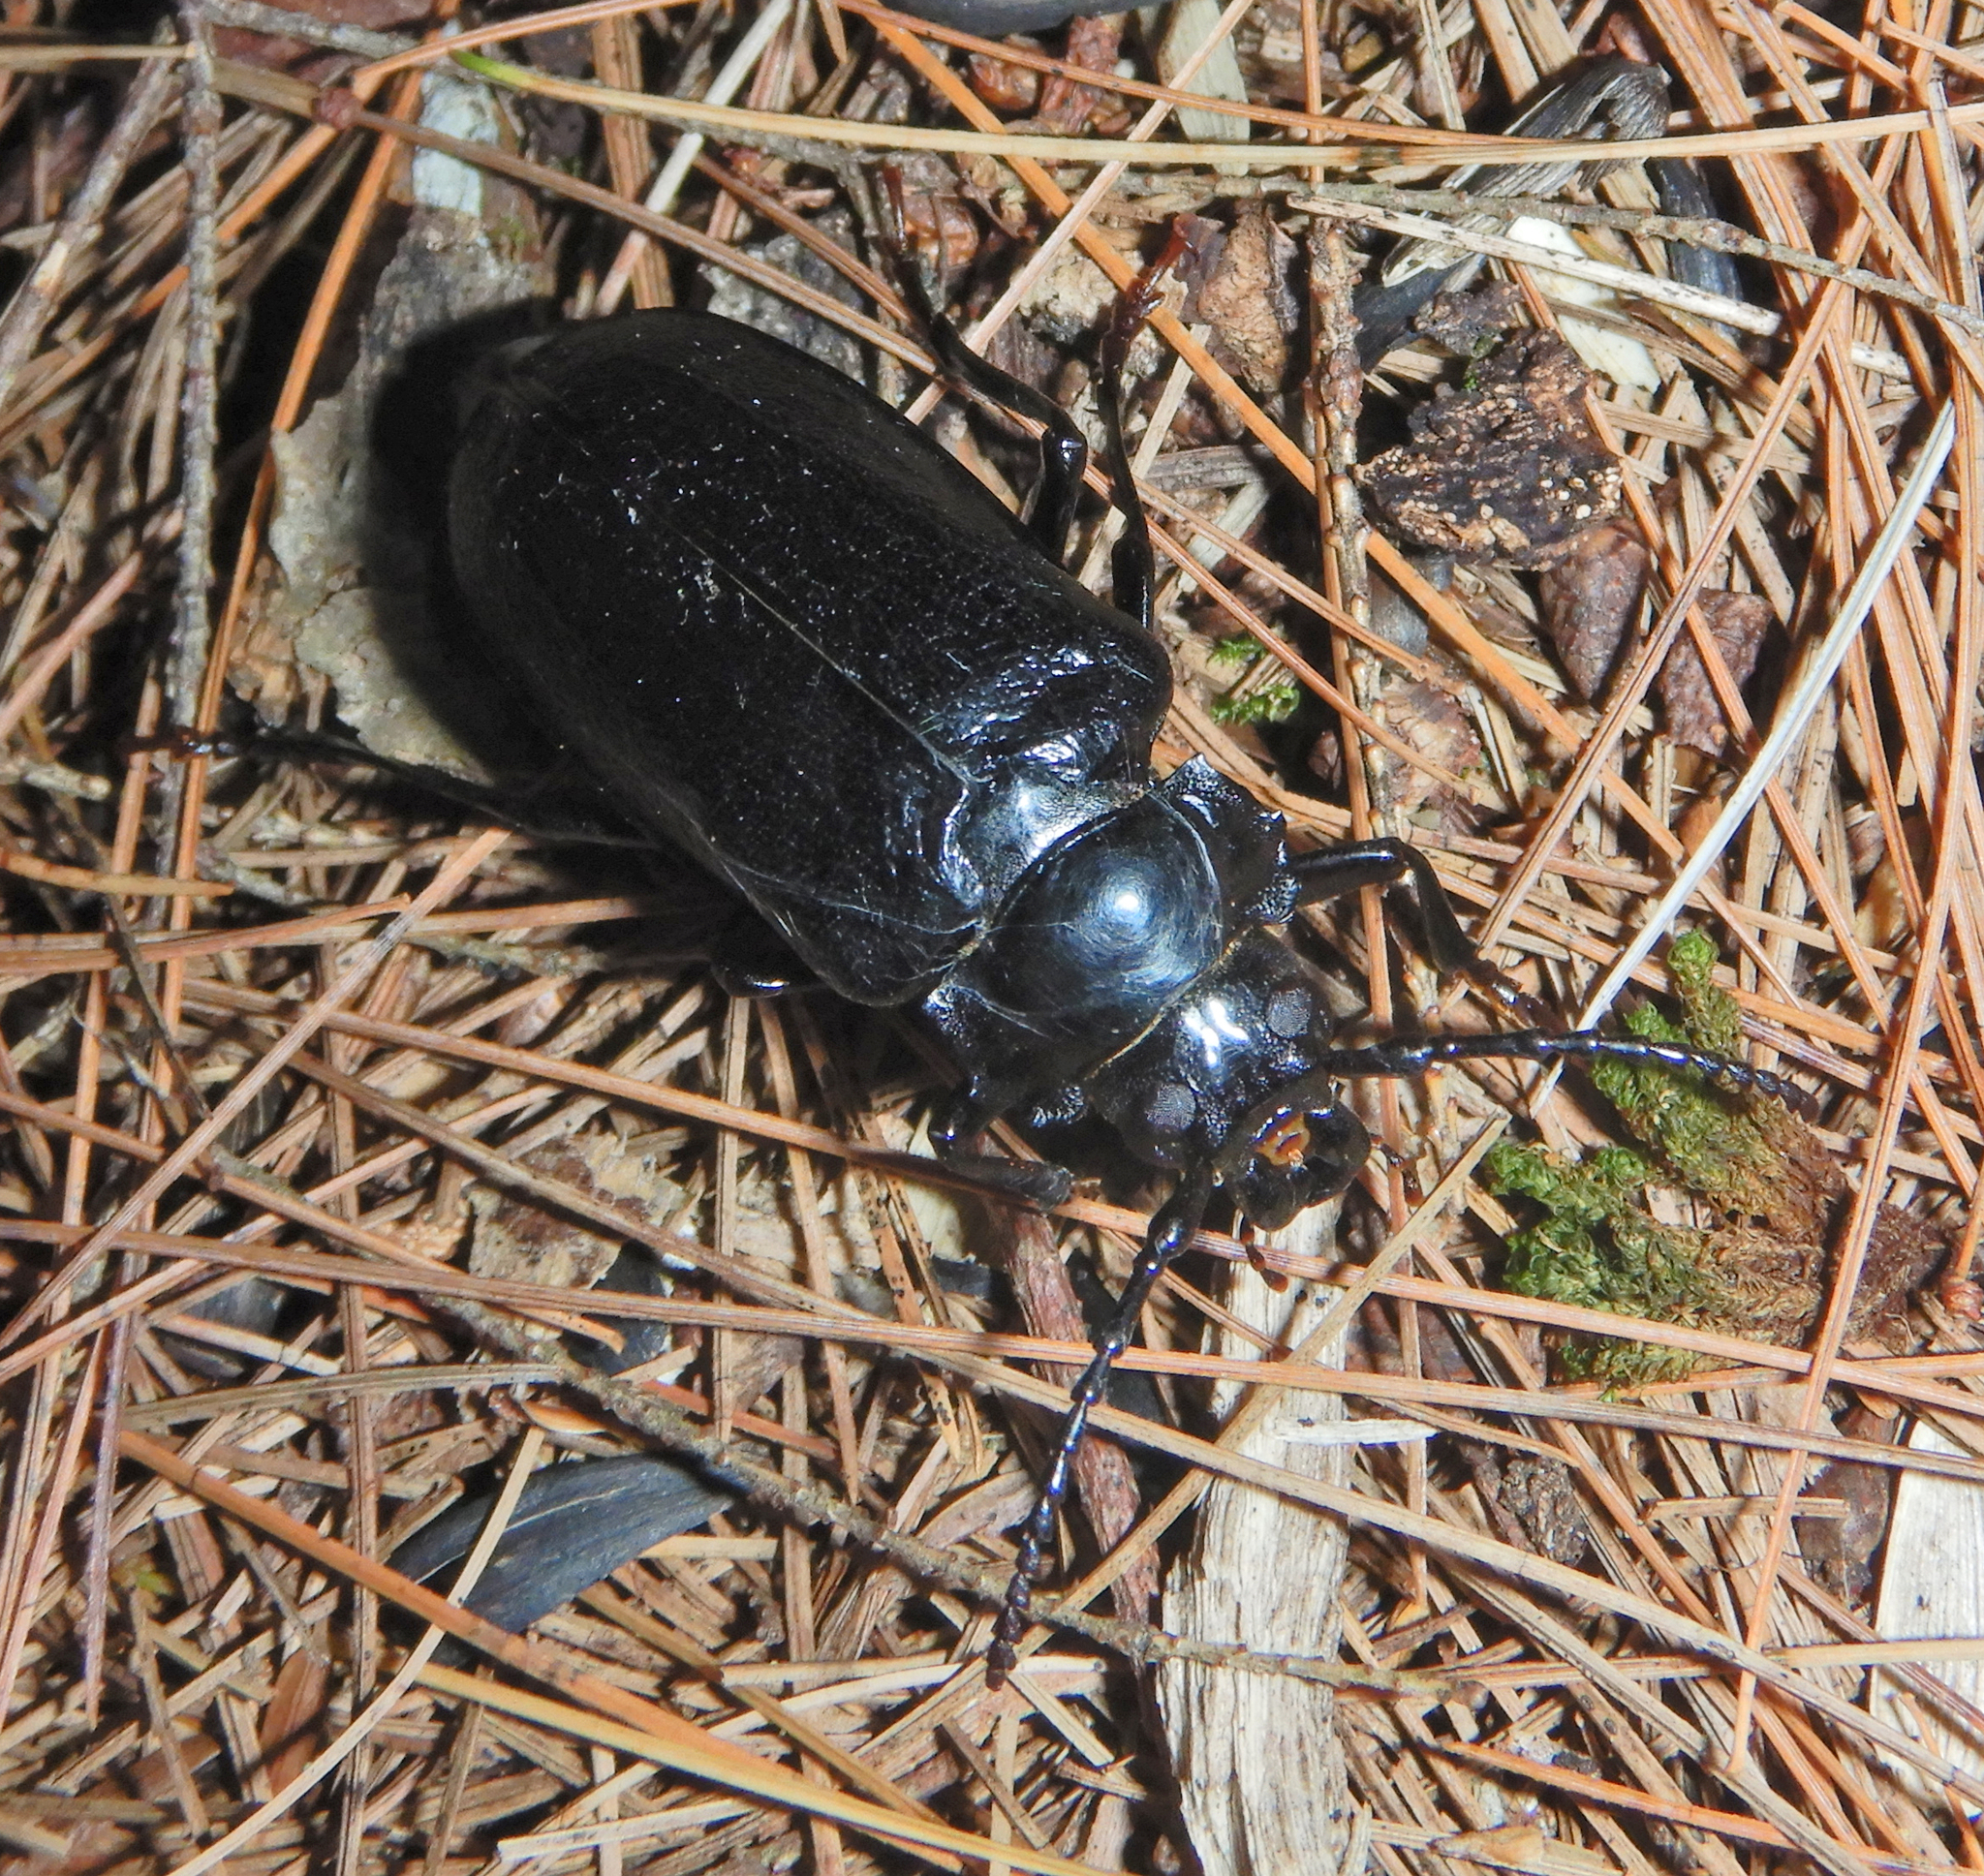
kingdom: Animalia
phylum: Arthropoda
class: Insecta
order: Coleoptera
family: Cerambycidae
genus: Prionus
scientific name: Prionus laticollis
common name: Broad necked prionus
